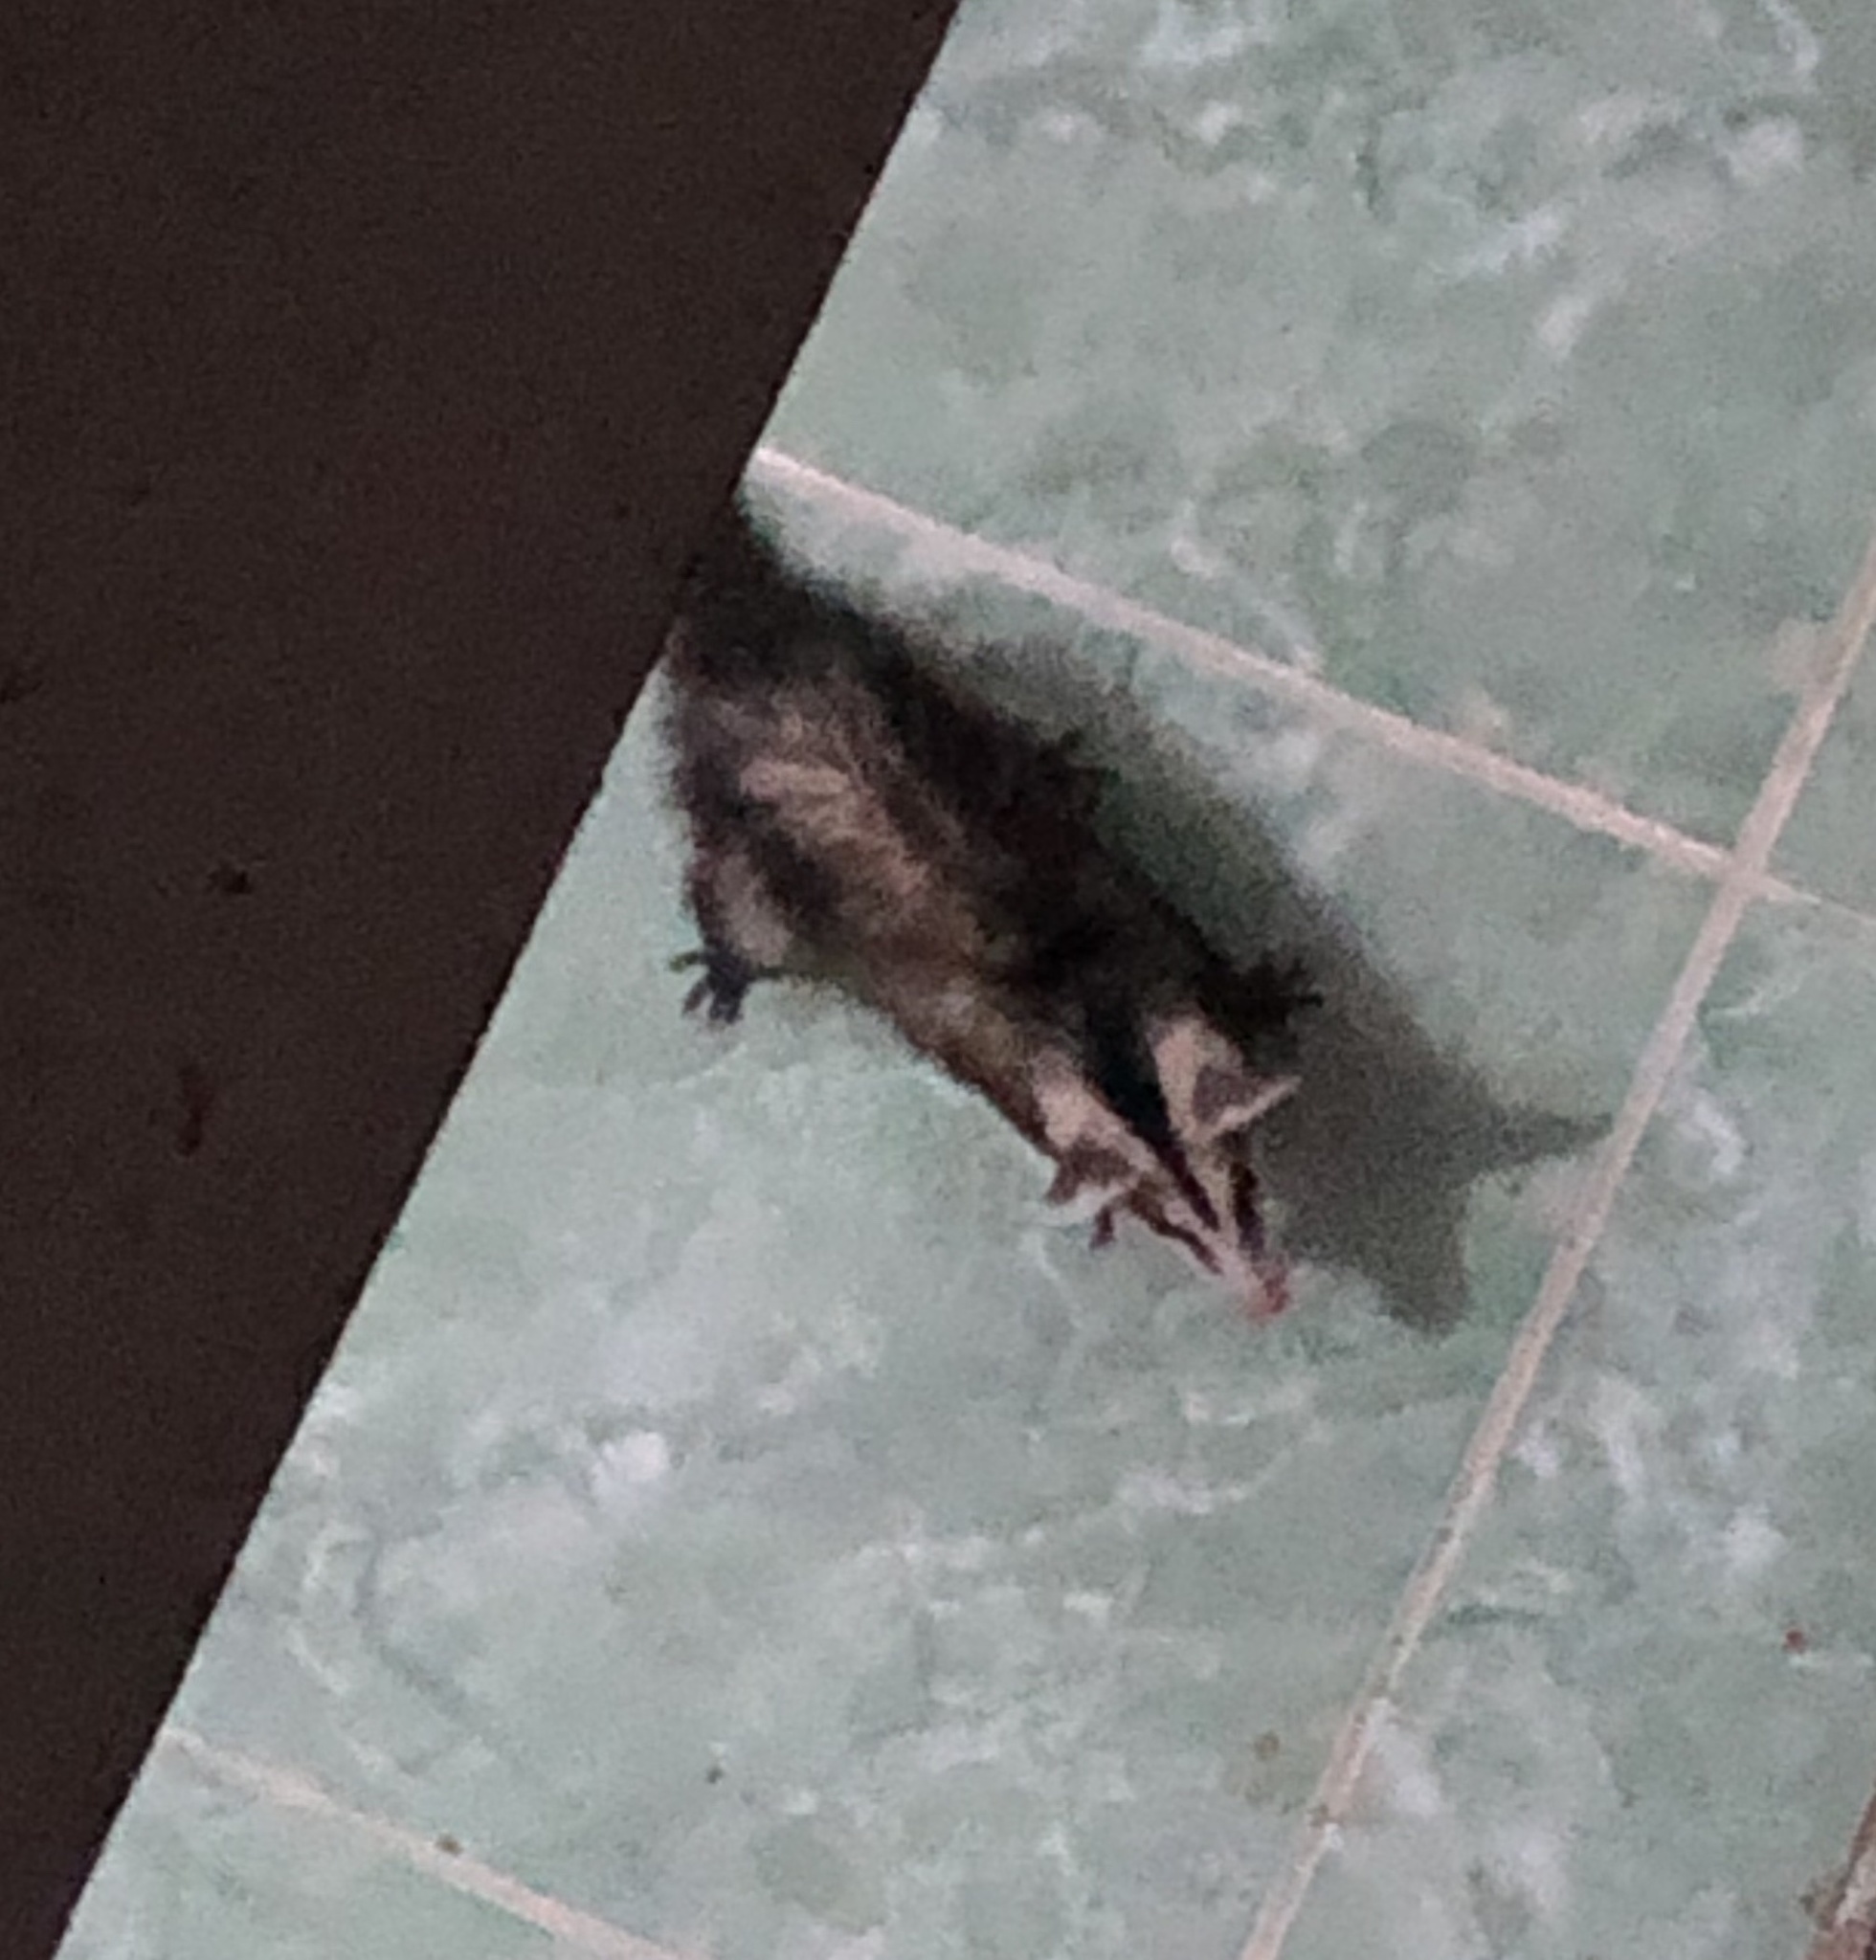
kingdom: Animalia
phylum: Chordata
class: Mammalia
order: Didelphimorphia
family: Didelphidae
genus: Didelphis
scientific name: Didelphis albiventris
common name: White-eared opossum
